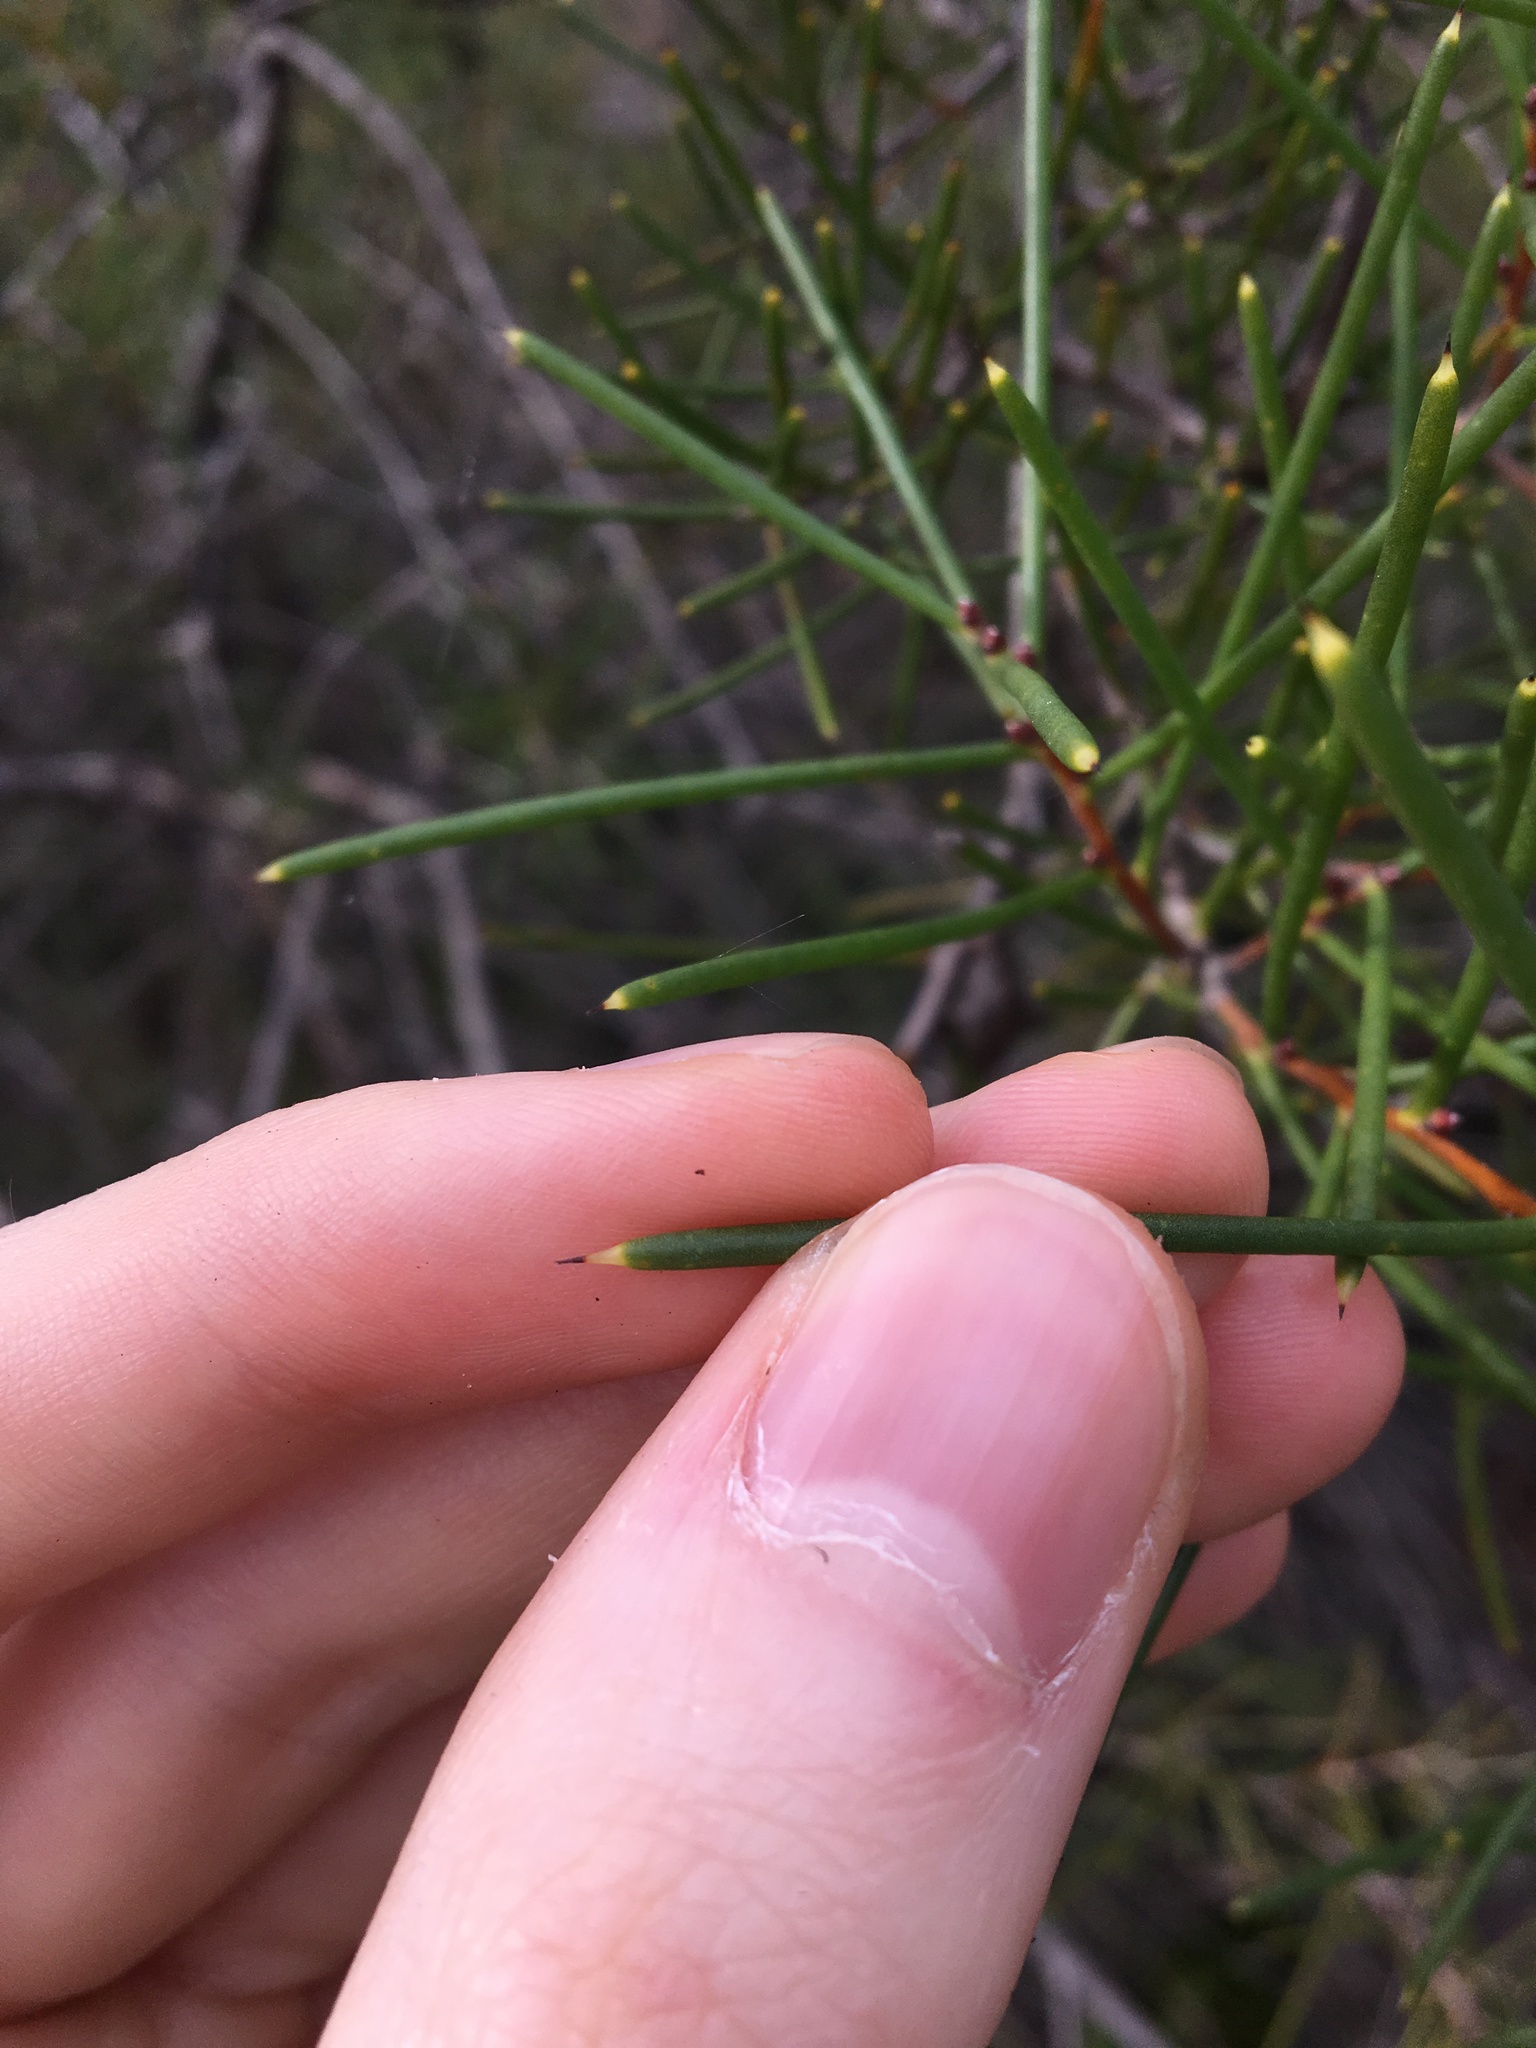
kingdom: Plantae
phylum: Tracheophyta
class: Magnoliopsida
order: Proteales
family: Proteaceae
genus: Hakea
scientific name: Hakea teretifolia
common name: Dagger hakea
